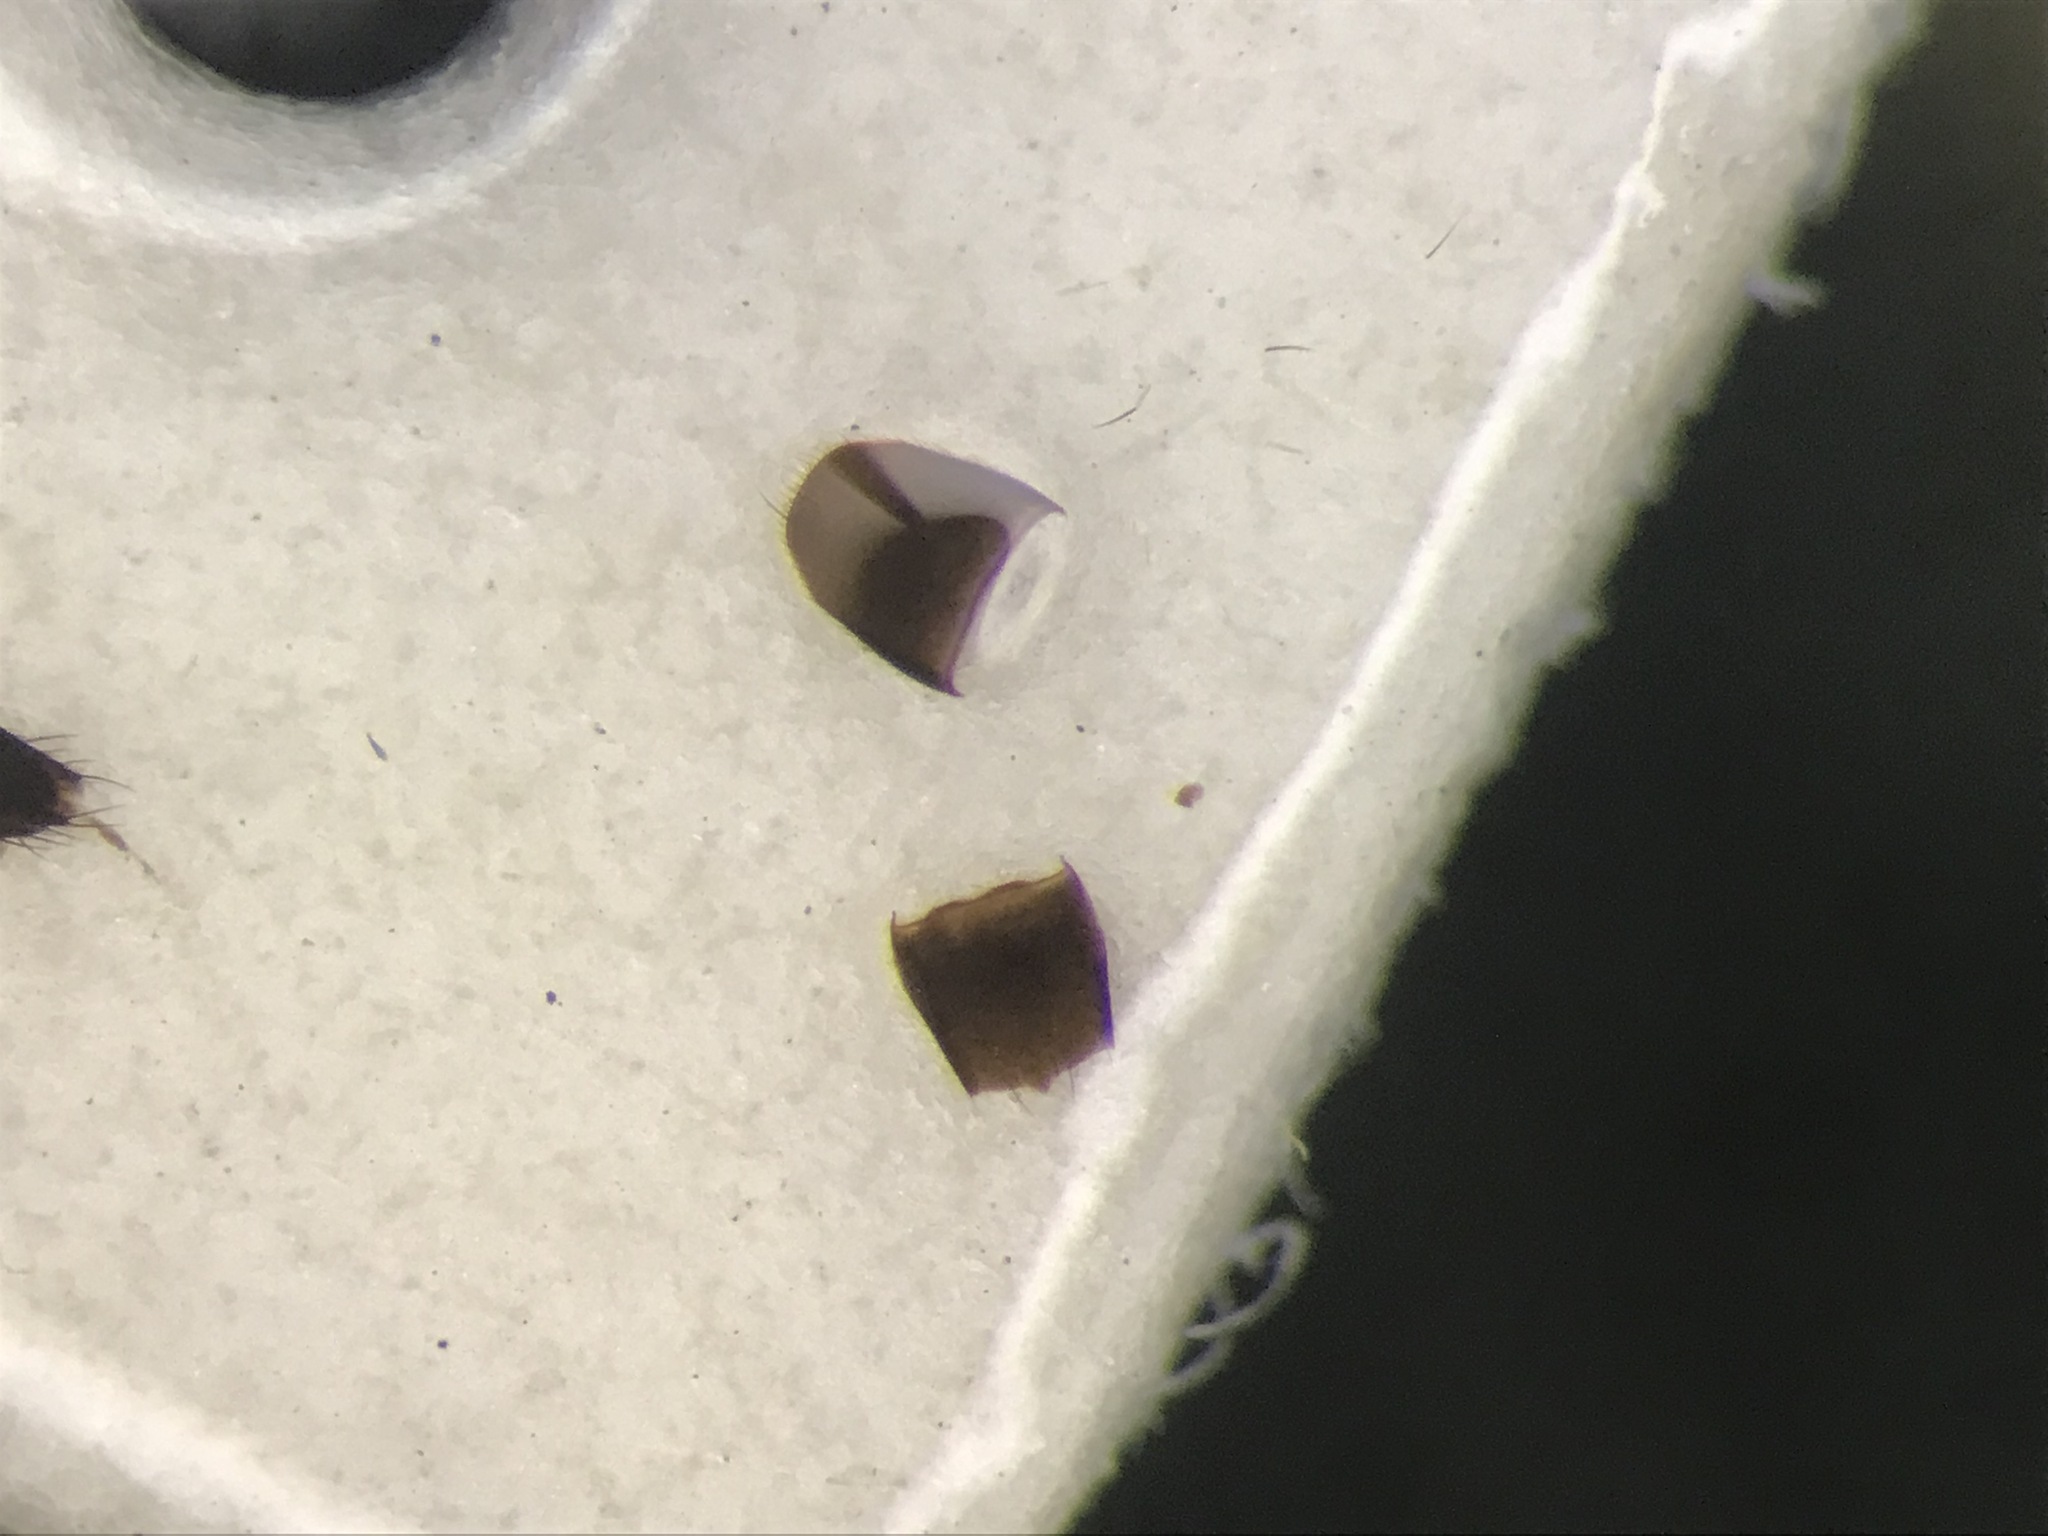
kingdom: Animalia
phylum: Arthropoda
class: Insecta
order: Coleoptera
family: Staphylinidae
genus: Strigota
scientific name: Strigota obscurata
